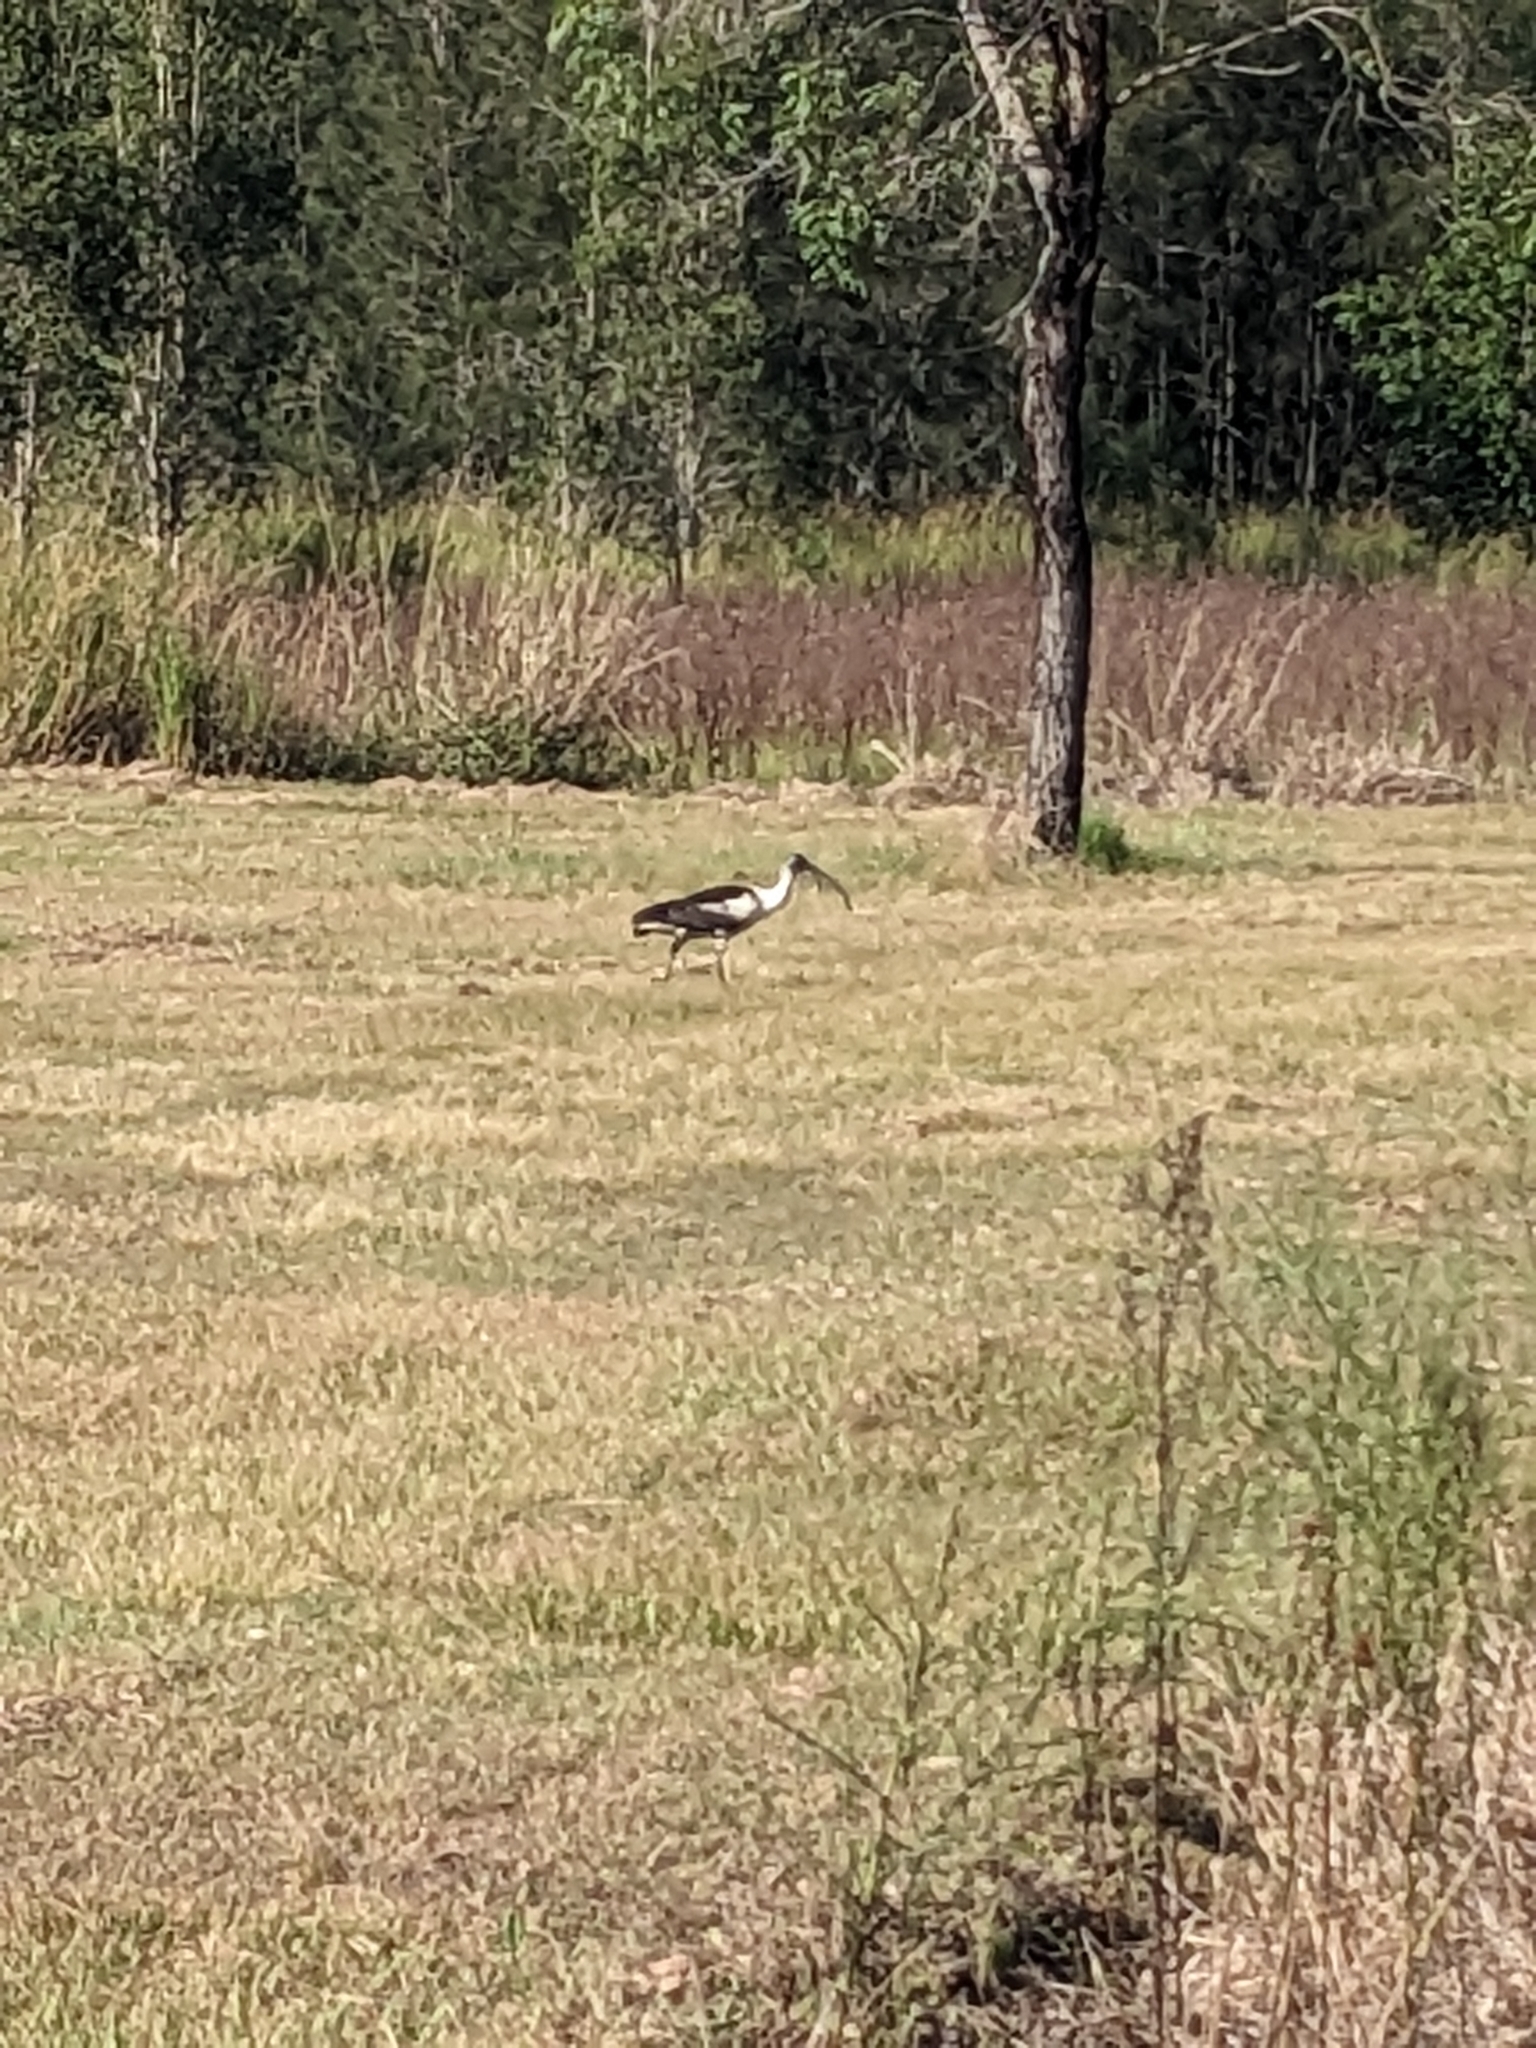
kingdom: Animalia
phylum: Chordata
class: Aves
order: Pelecaniformes
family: Threskiornithidae
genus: Threskiornis
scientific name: Threskiornis spinicollis
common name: Straw-necked ibis
